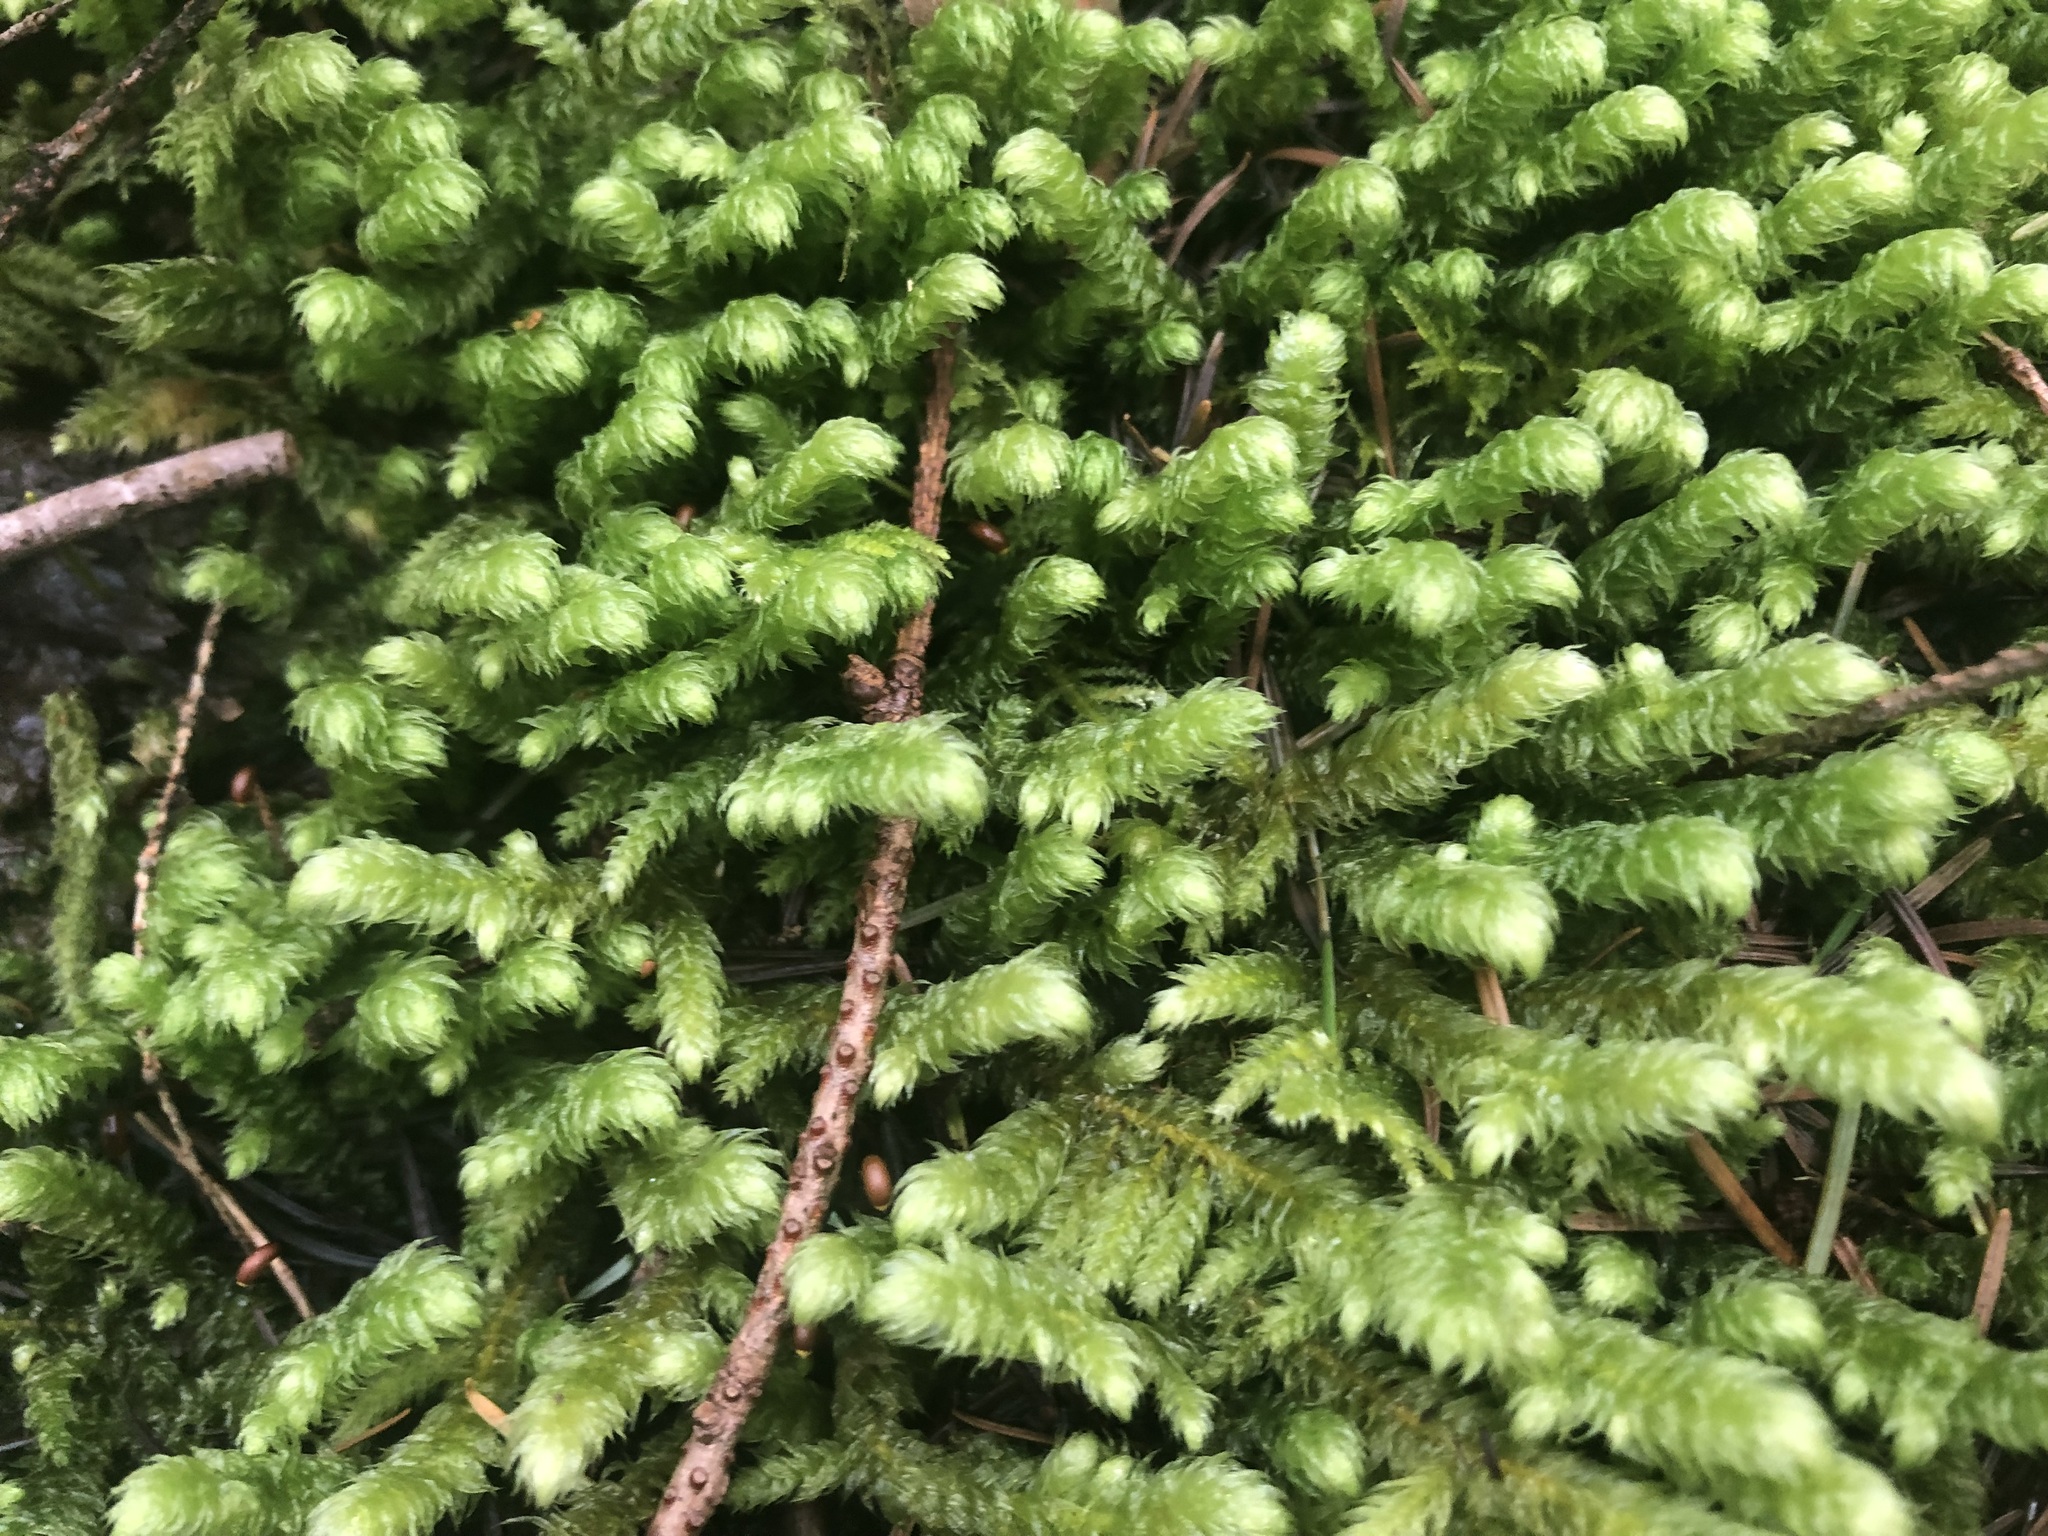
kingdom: Plantae
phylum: Bryophyta
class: Bryopsida
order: Hypnales
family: Hylocomiaceae
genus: Rhytidiopsis
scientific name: Rhytidiopsis robusta
